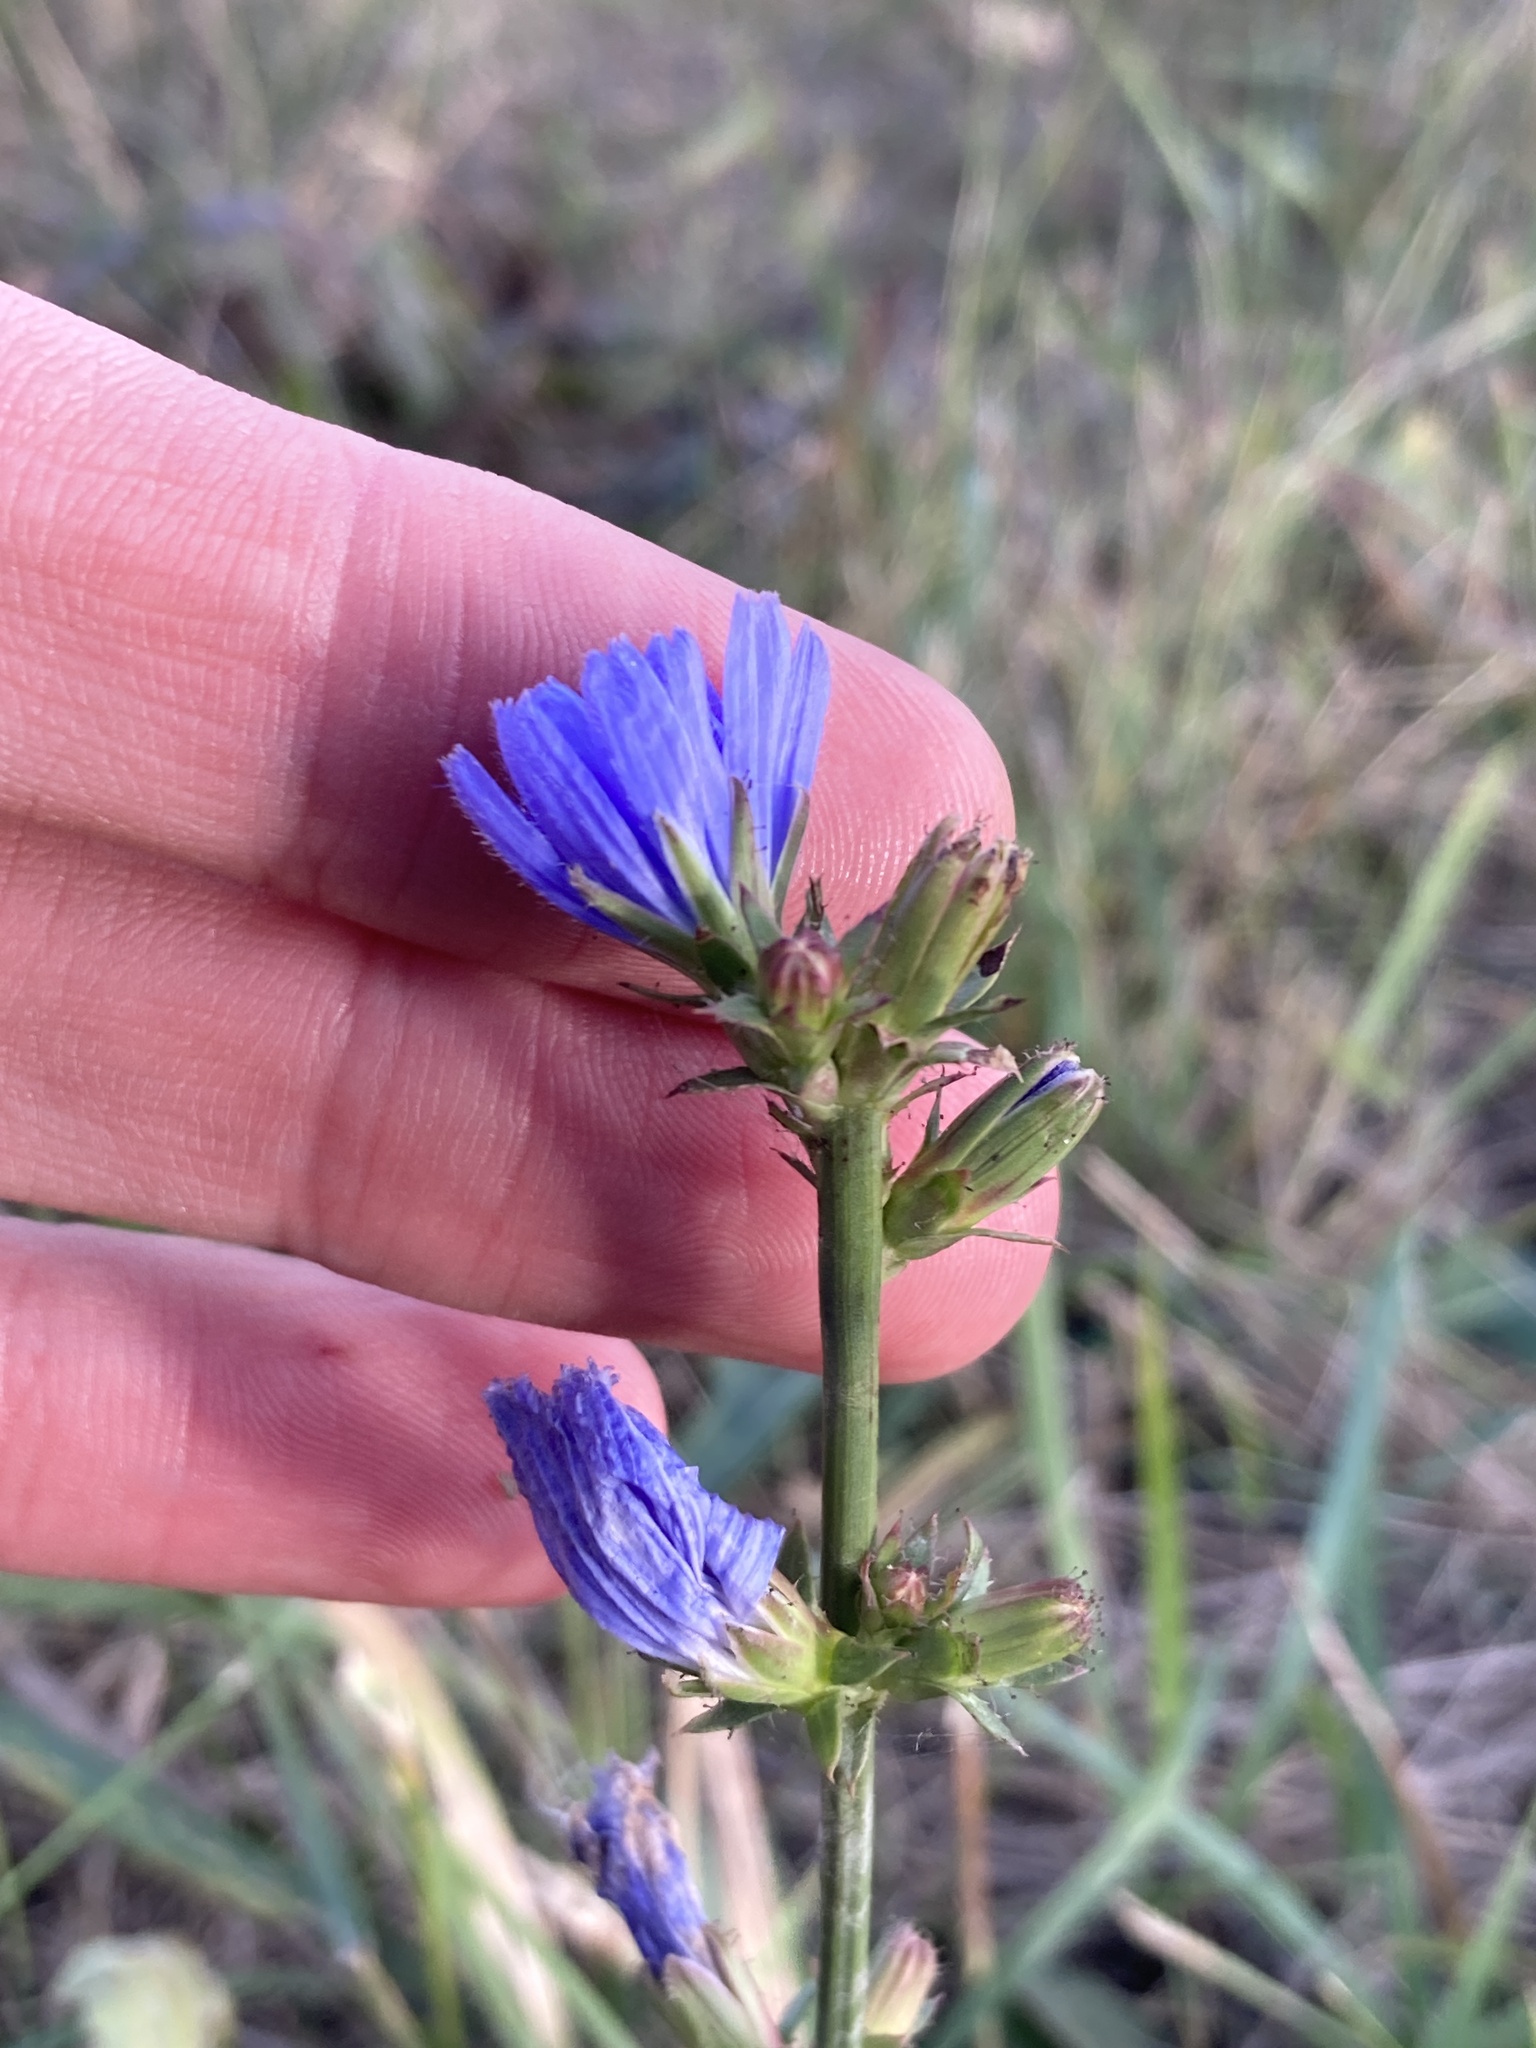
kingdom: Plantae
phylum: Tracheophyta
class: Magnoliopsida
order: Asterales
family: Asteraceae
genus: Cichorium
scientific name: Cichorium intybus
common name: Chicory
